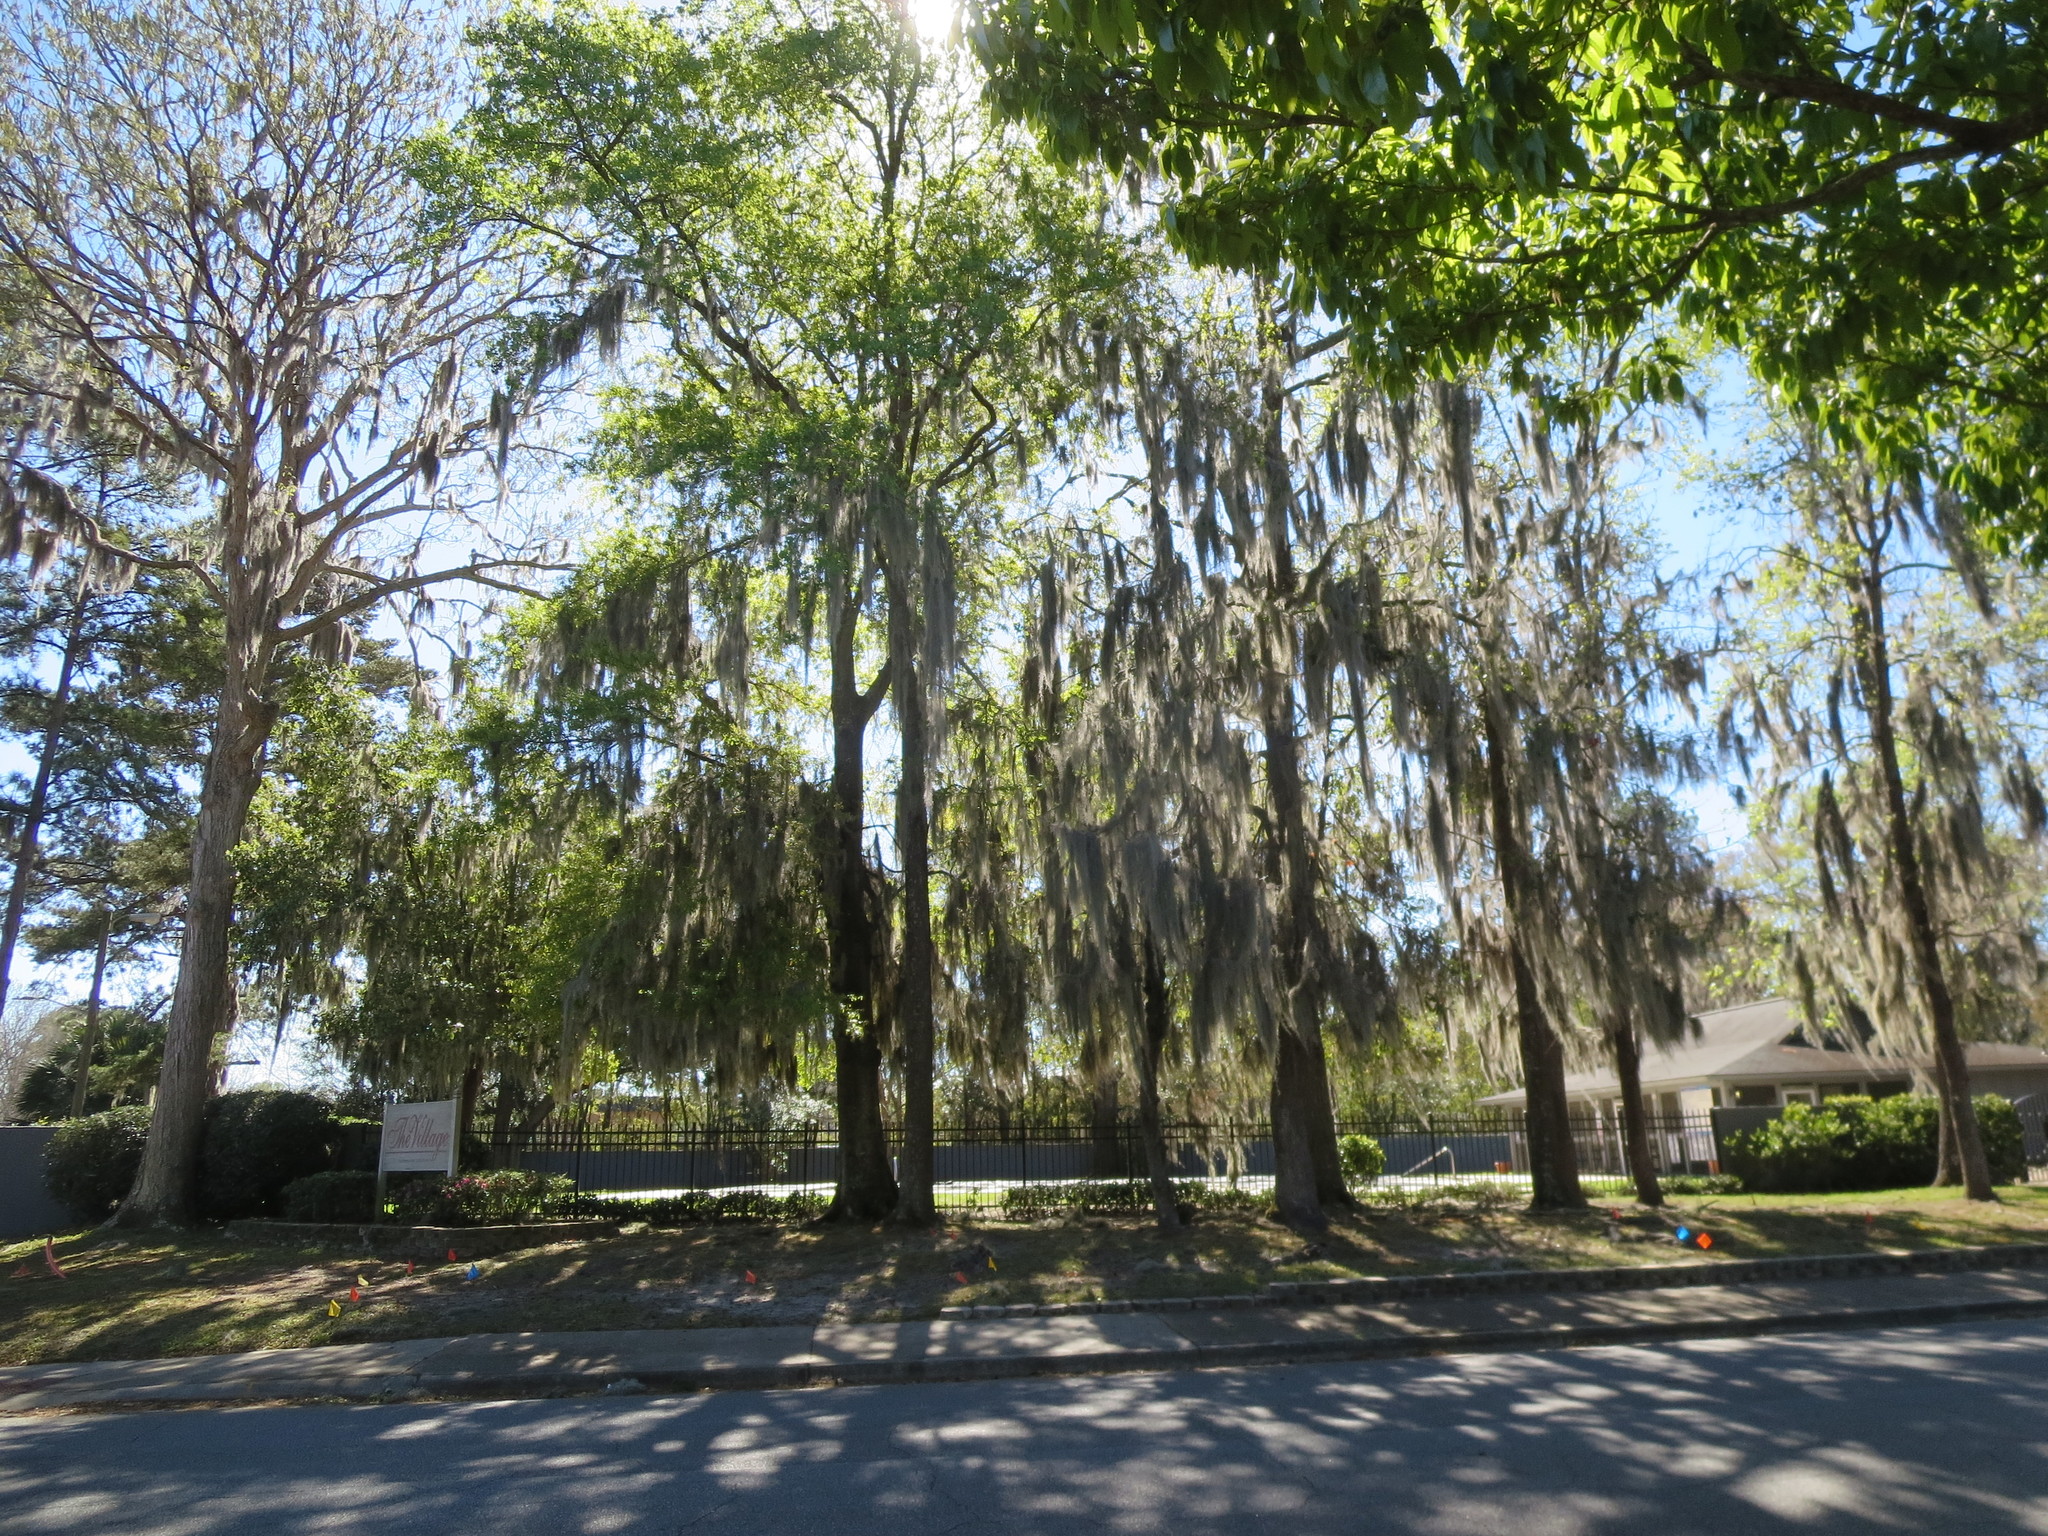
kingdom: Plantae
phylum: Tracheophyta
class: Magnoliopsida
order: Saxifragales
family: Altingiaceae
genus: Liquidambar
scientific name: Liquidambar styraciflua
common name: Sweet gum
